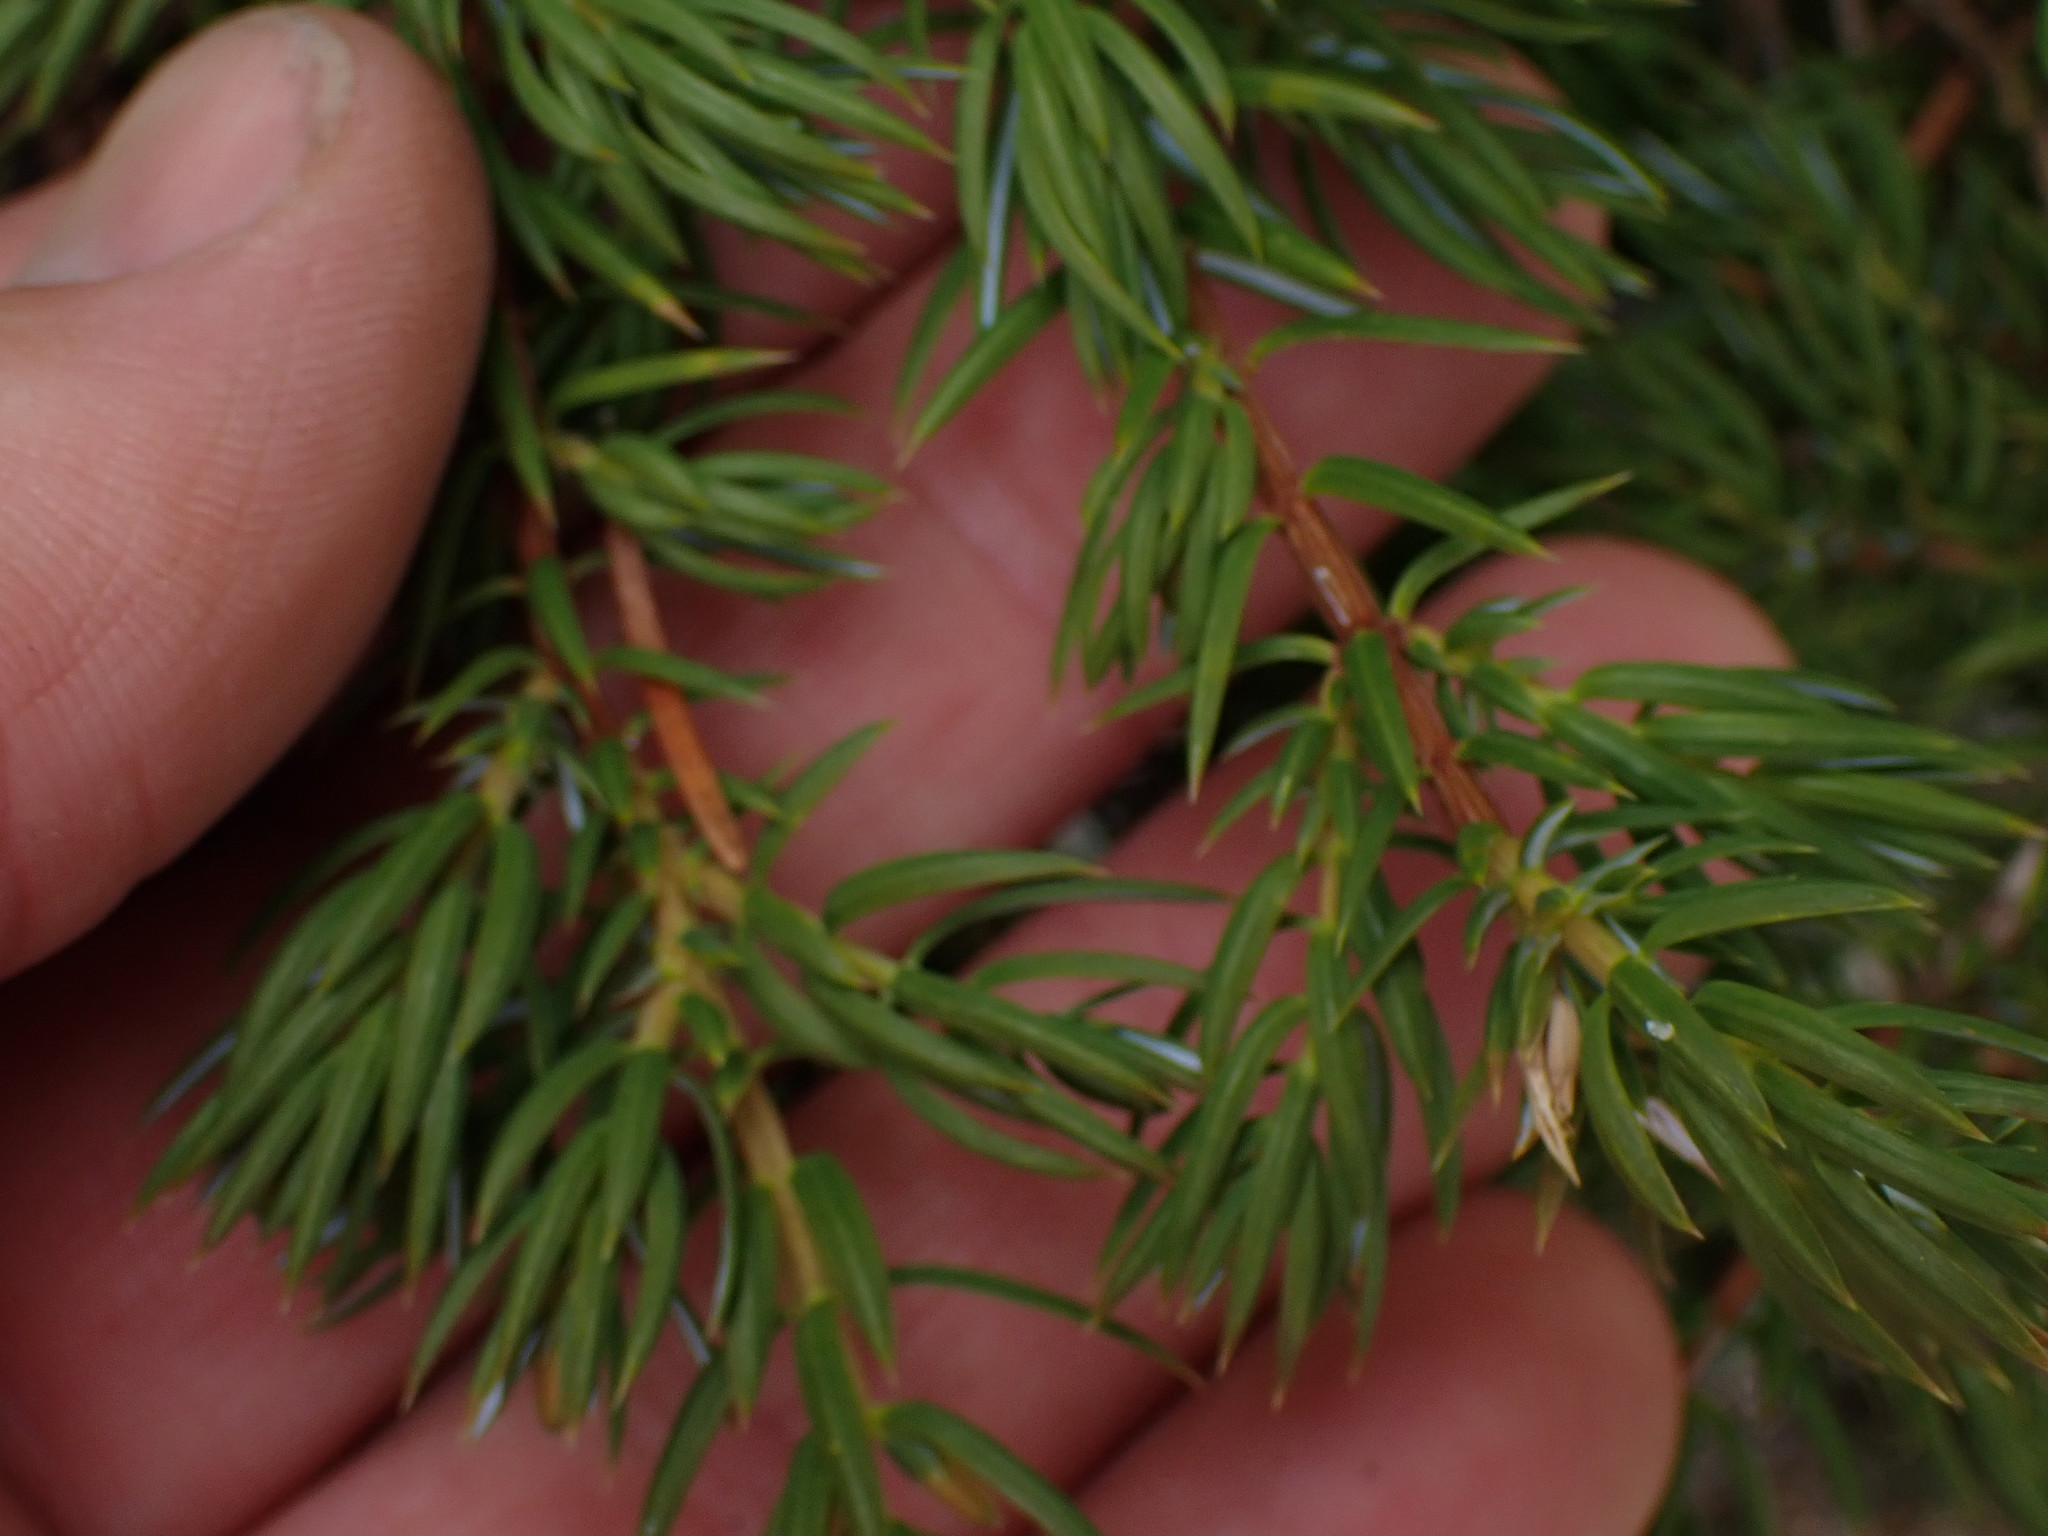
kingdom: Plantae
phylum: Tracheophyta
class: Pinopsida
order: Pinales
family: Cupressaceae
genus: Juniperus
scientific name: Juniperus communis
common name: Common juniper
